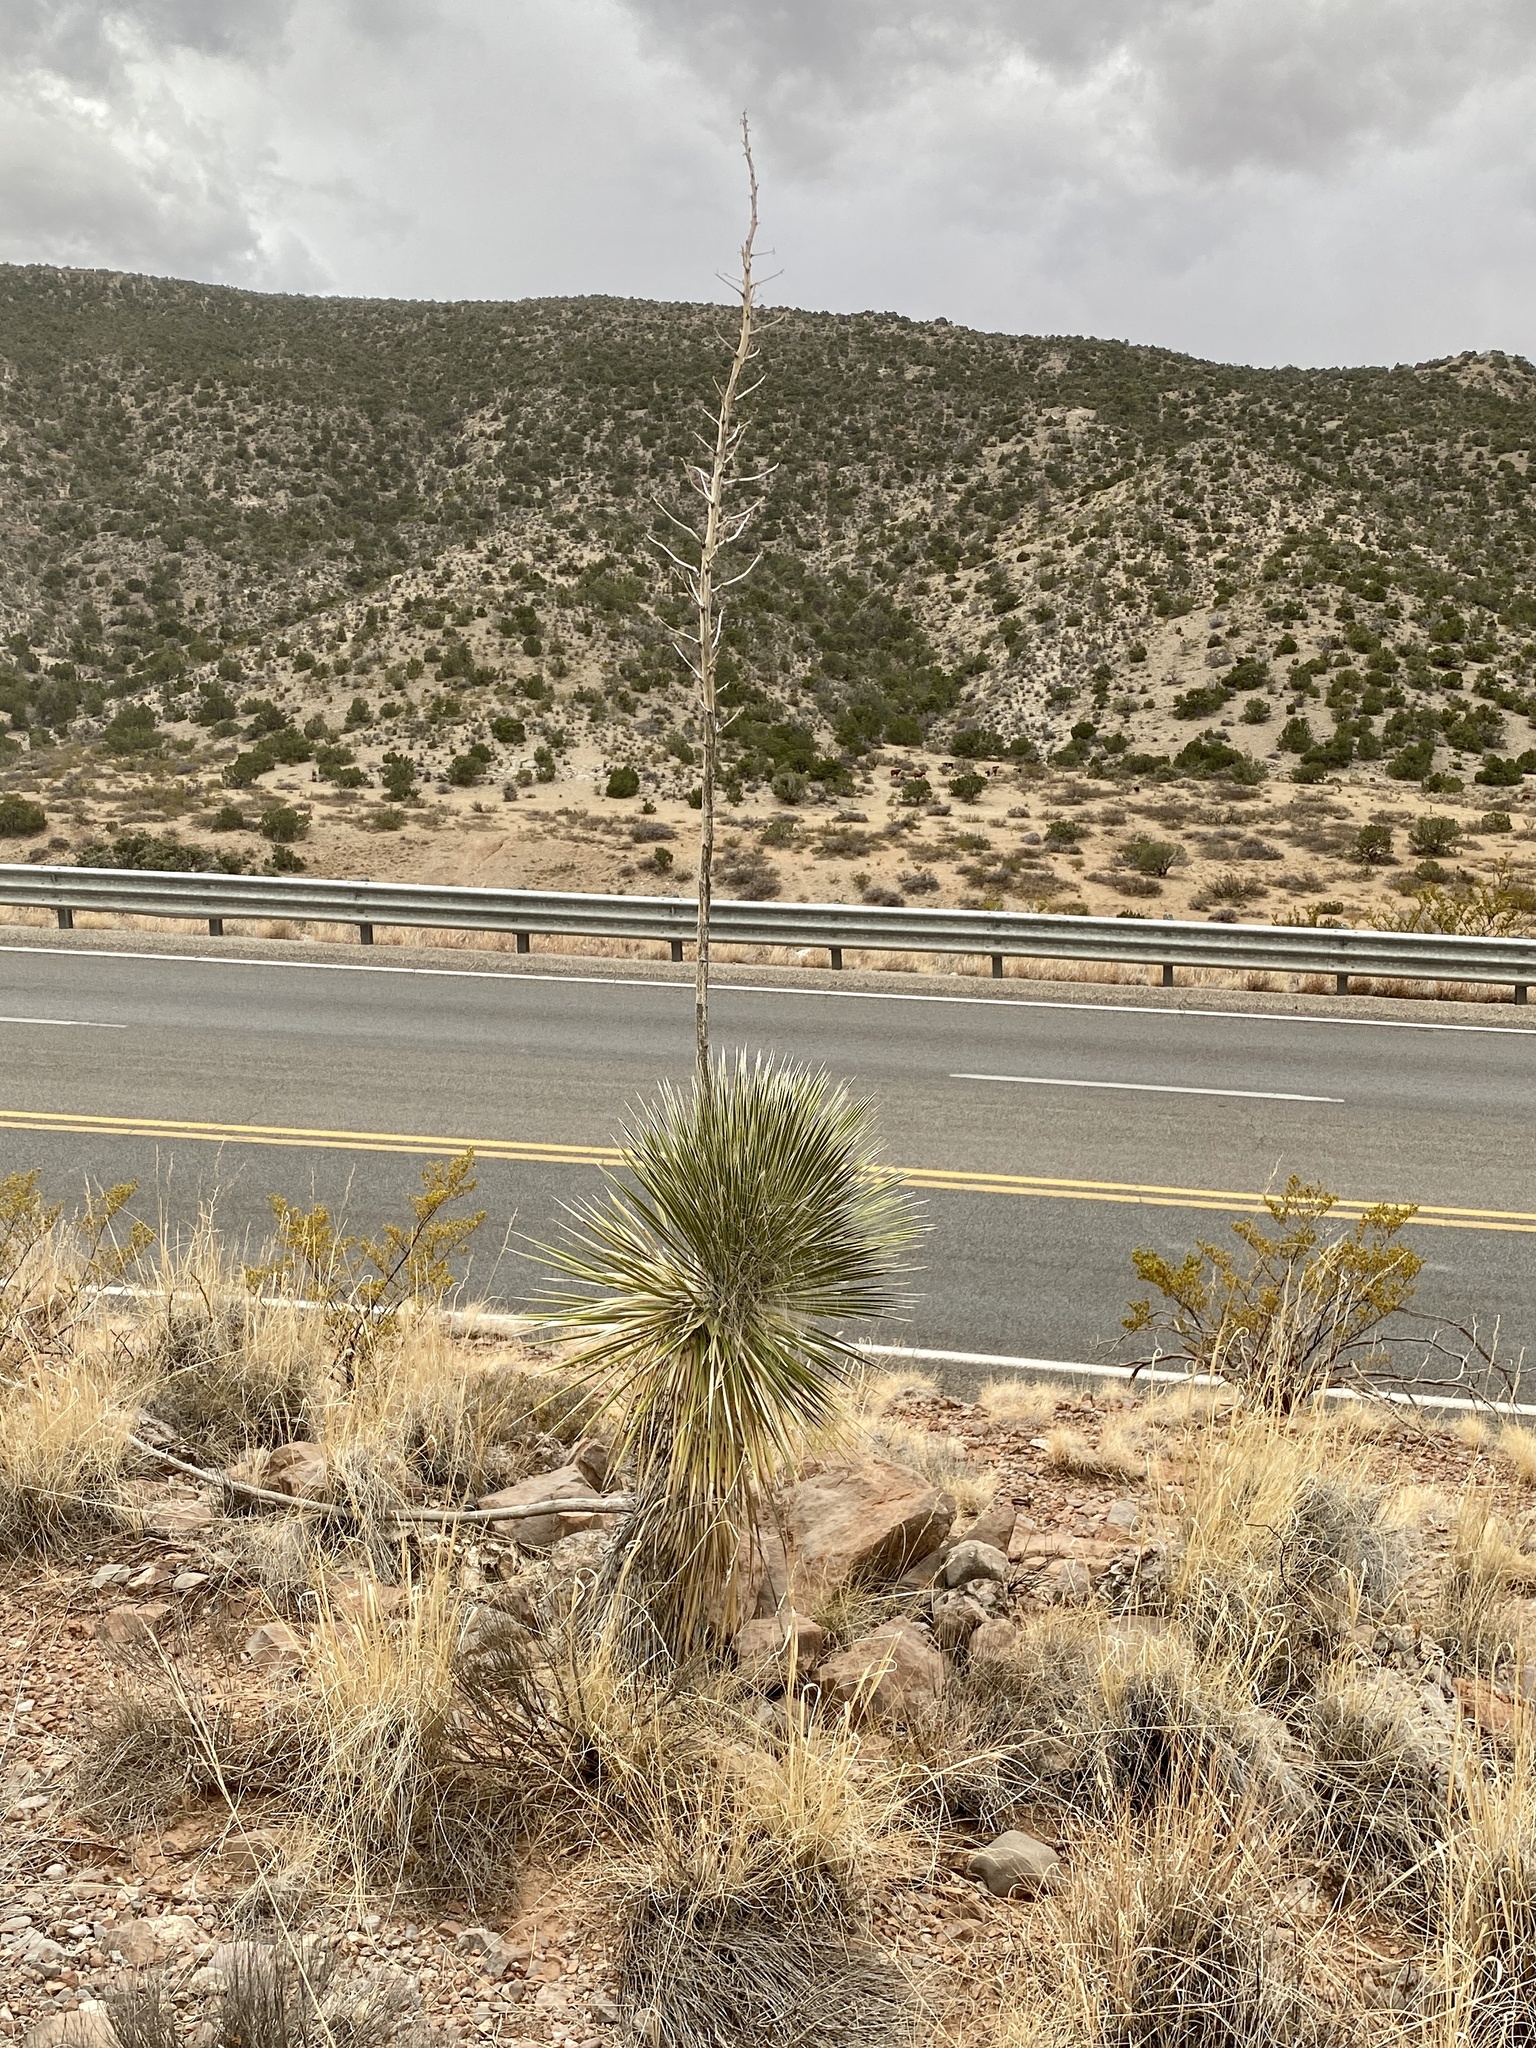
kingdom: Plantae
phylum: Tracheophyta
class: Liliopsida
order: Asparagales
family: Asparagaceae
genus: Yucca
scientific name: Yucca elata
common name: Palmella
